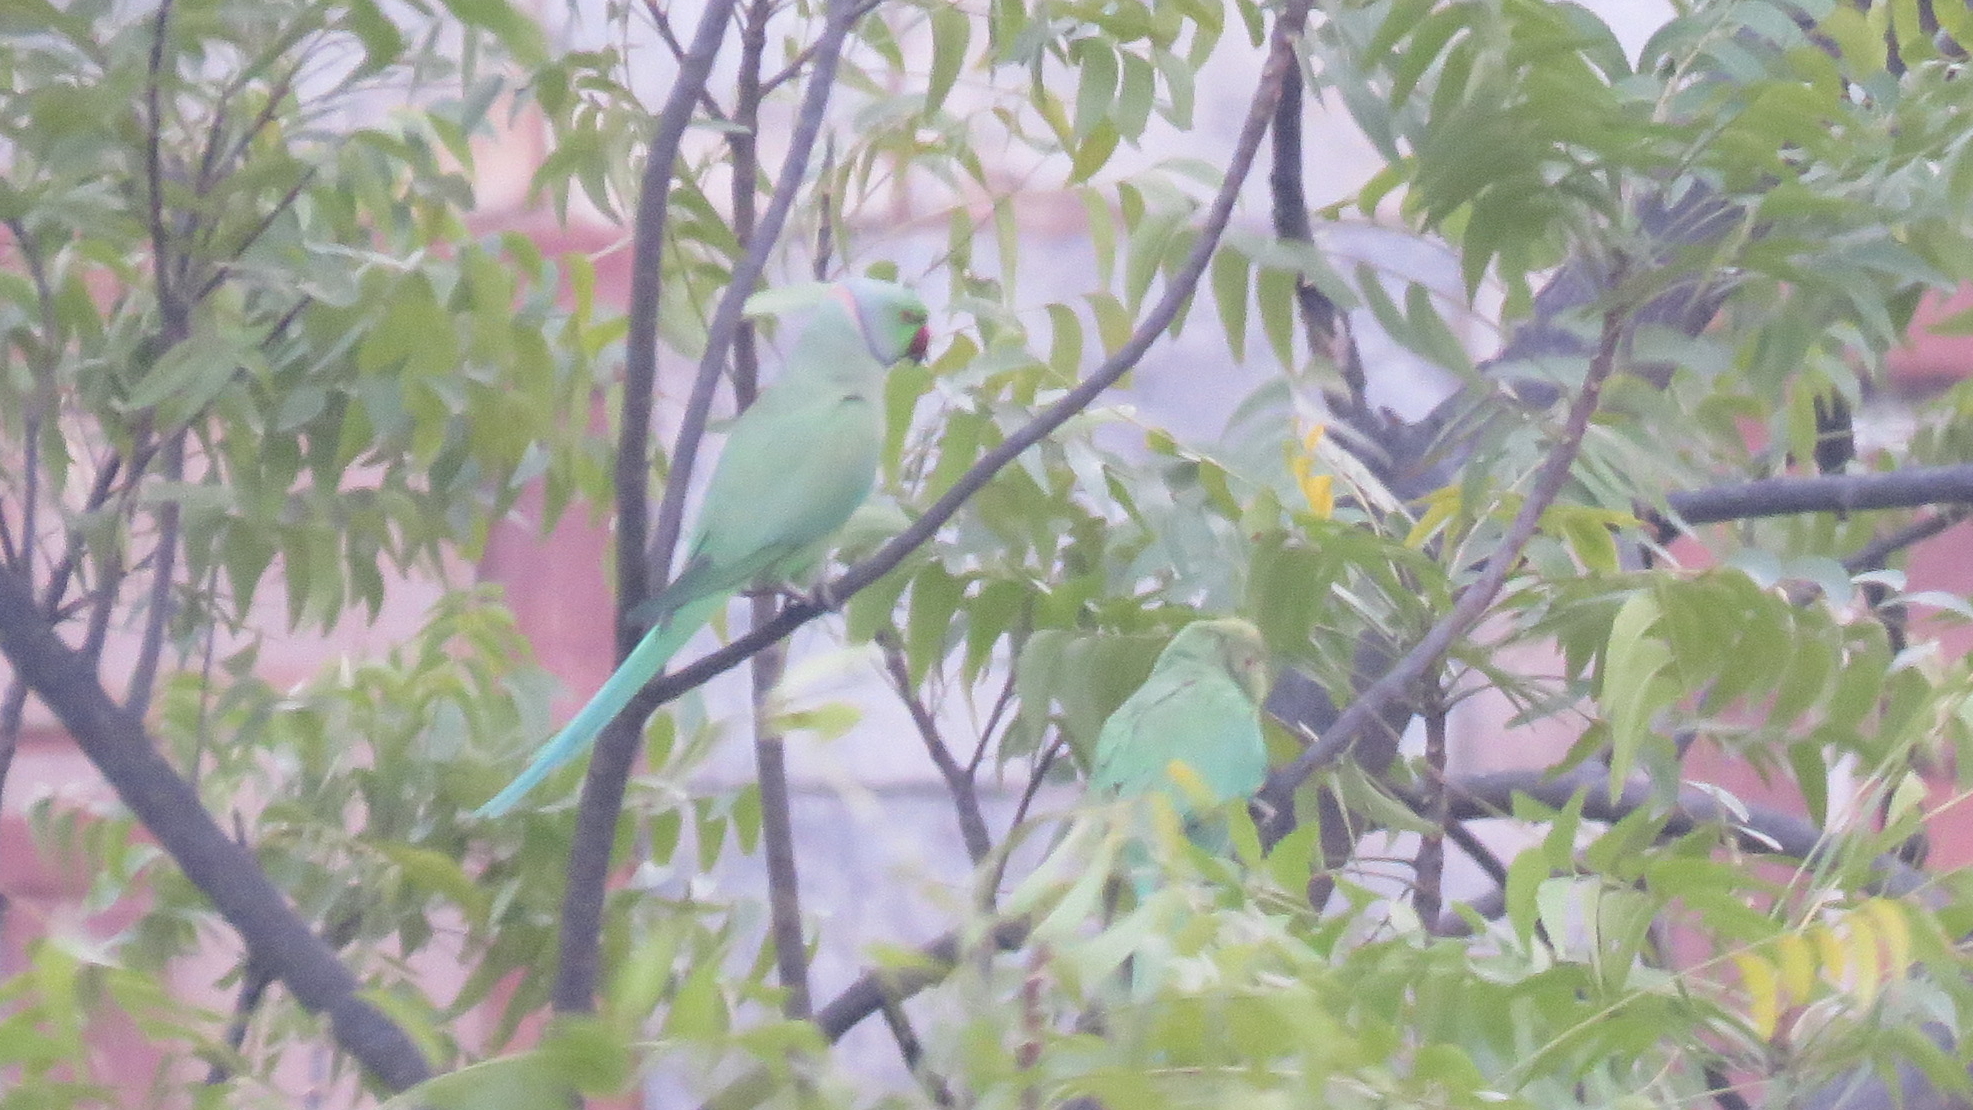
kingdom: Animalia
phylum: Chordata
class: Aves
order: Psittaciformes
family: Psittacidae
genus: Psittacula
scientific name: Psittacula krameri
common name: Rose-ringed parakeet
